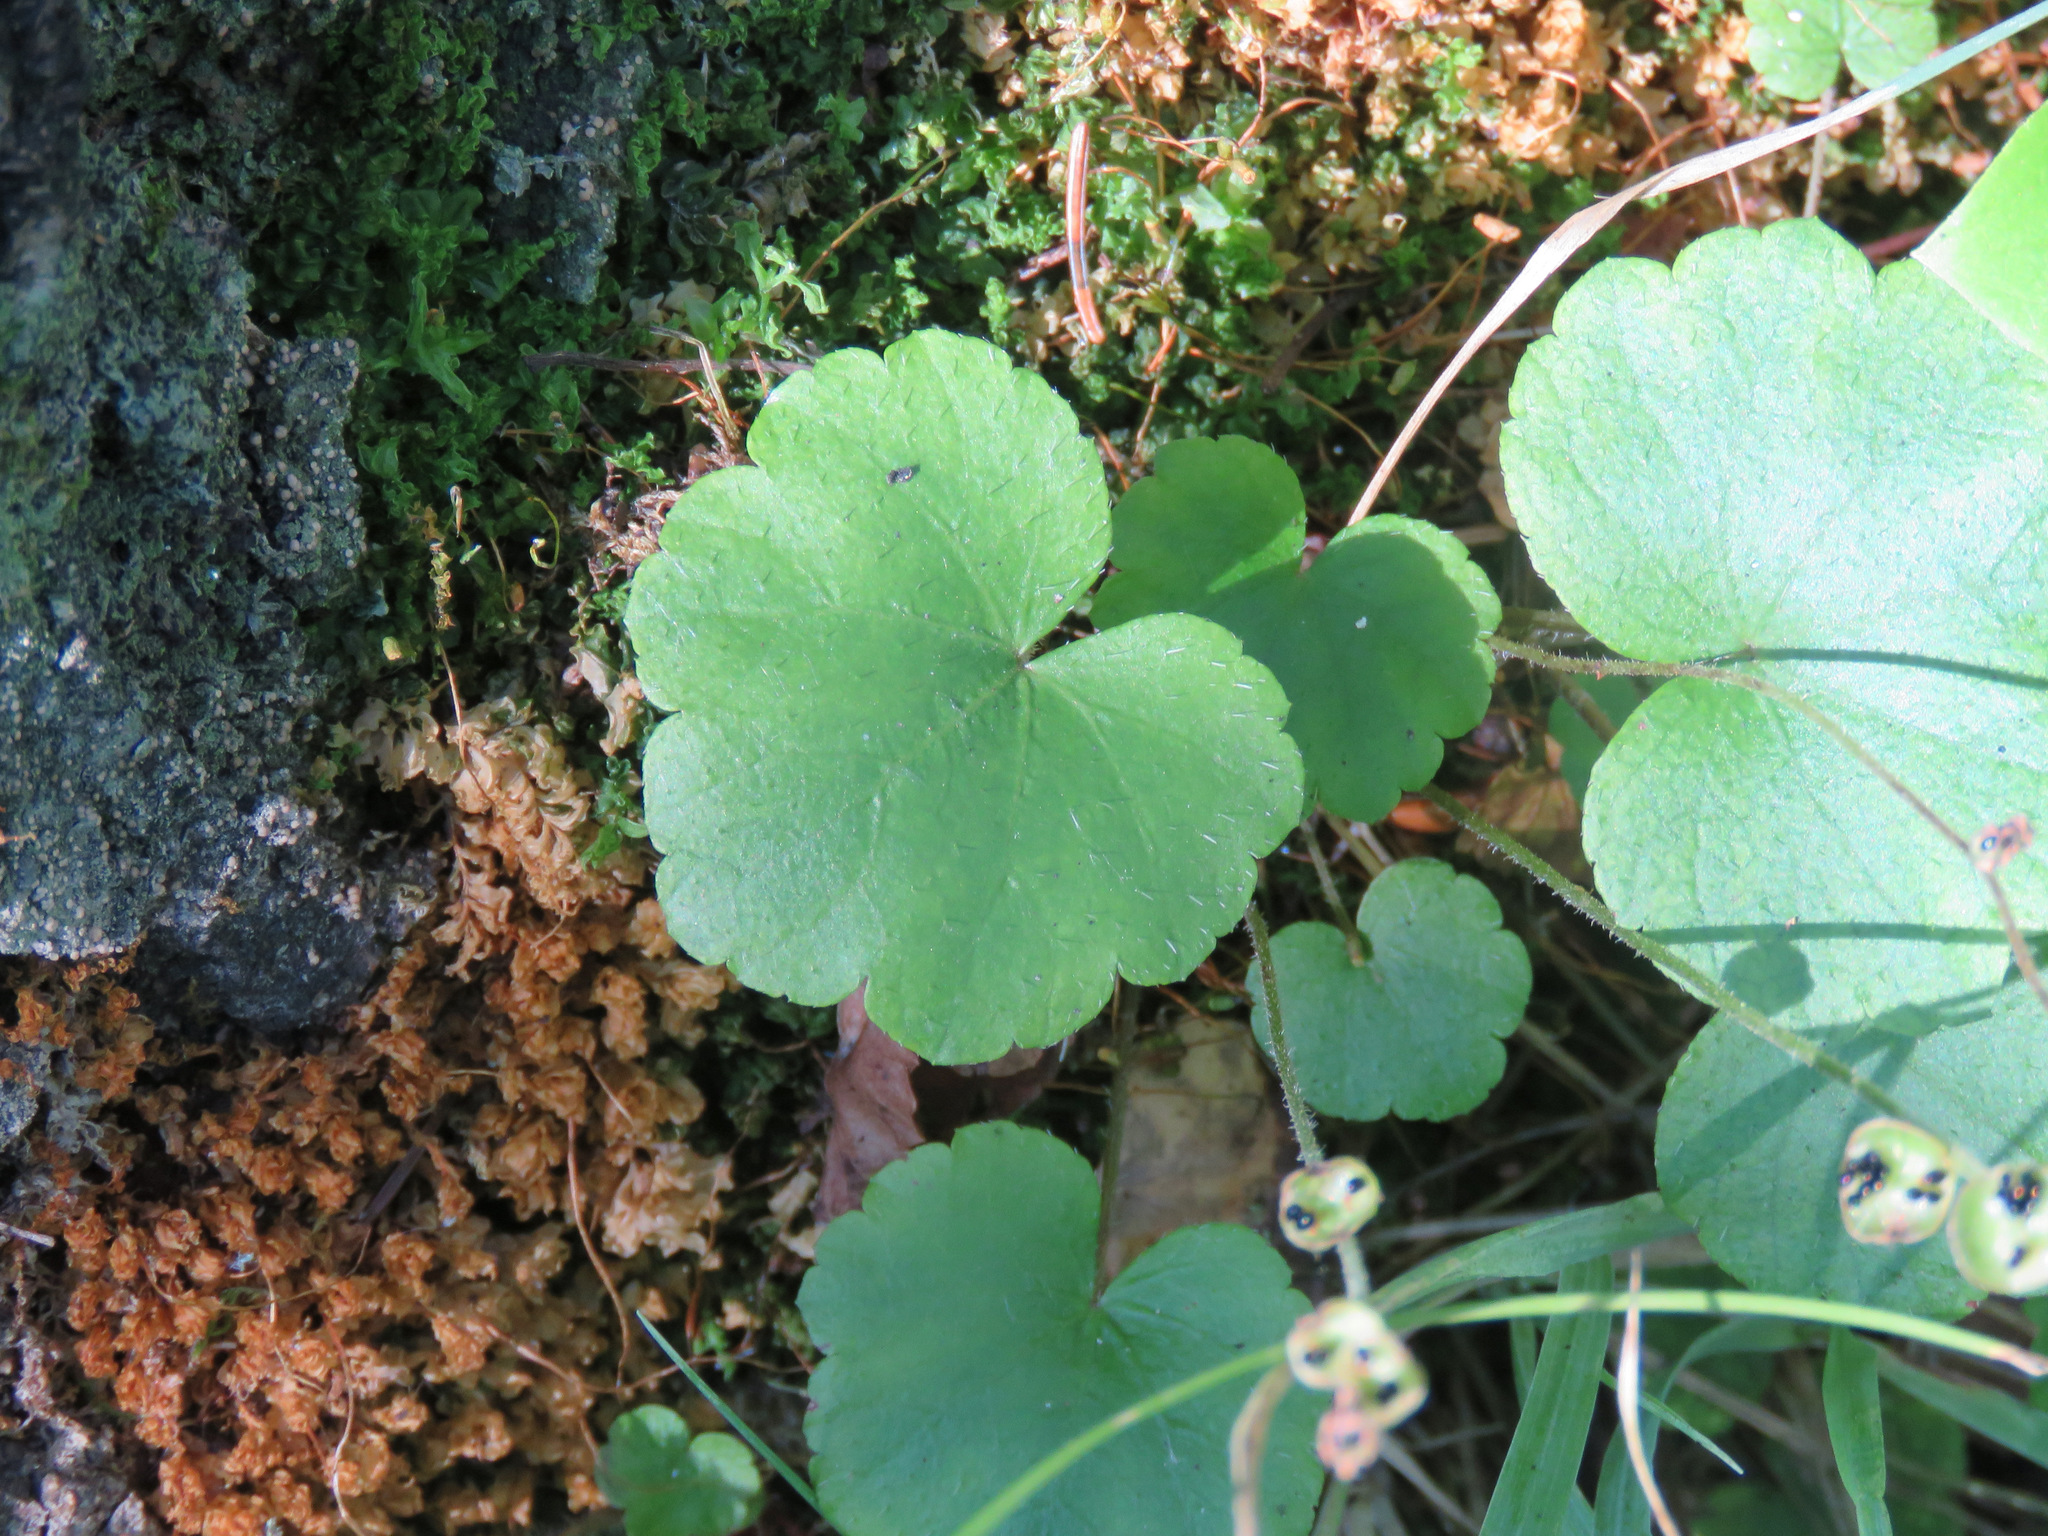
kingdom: Plantae
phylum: Tracheophyta
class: Magnoliopsida
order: Saxifragales
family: Saxifragaceae
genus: Mitella
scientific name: Mitella nuda
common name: Bare-stemmed bishop's-cap
